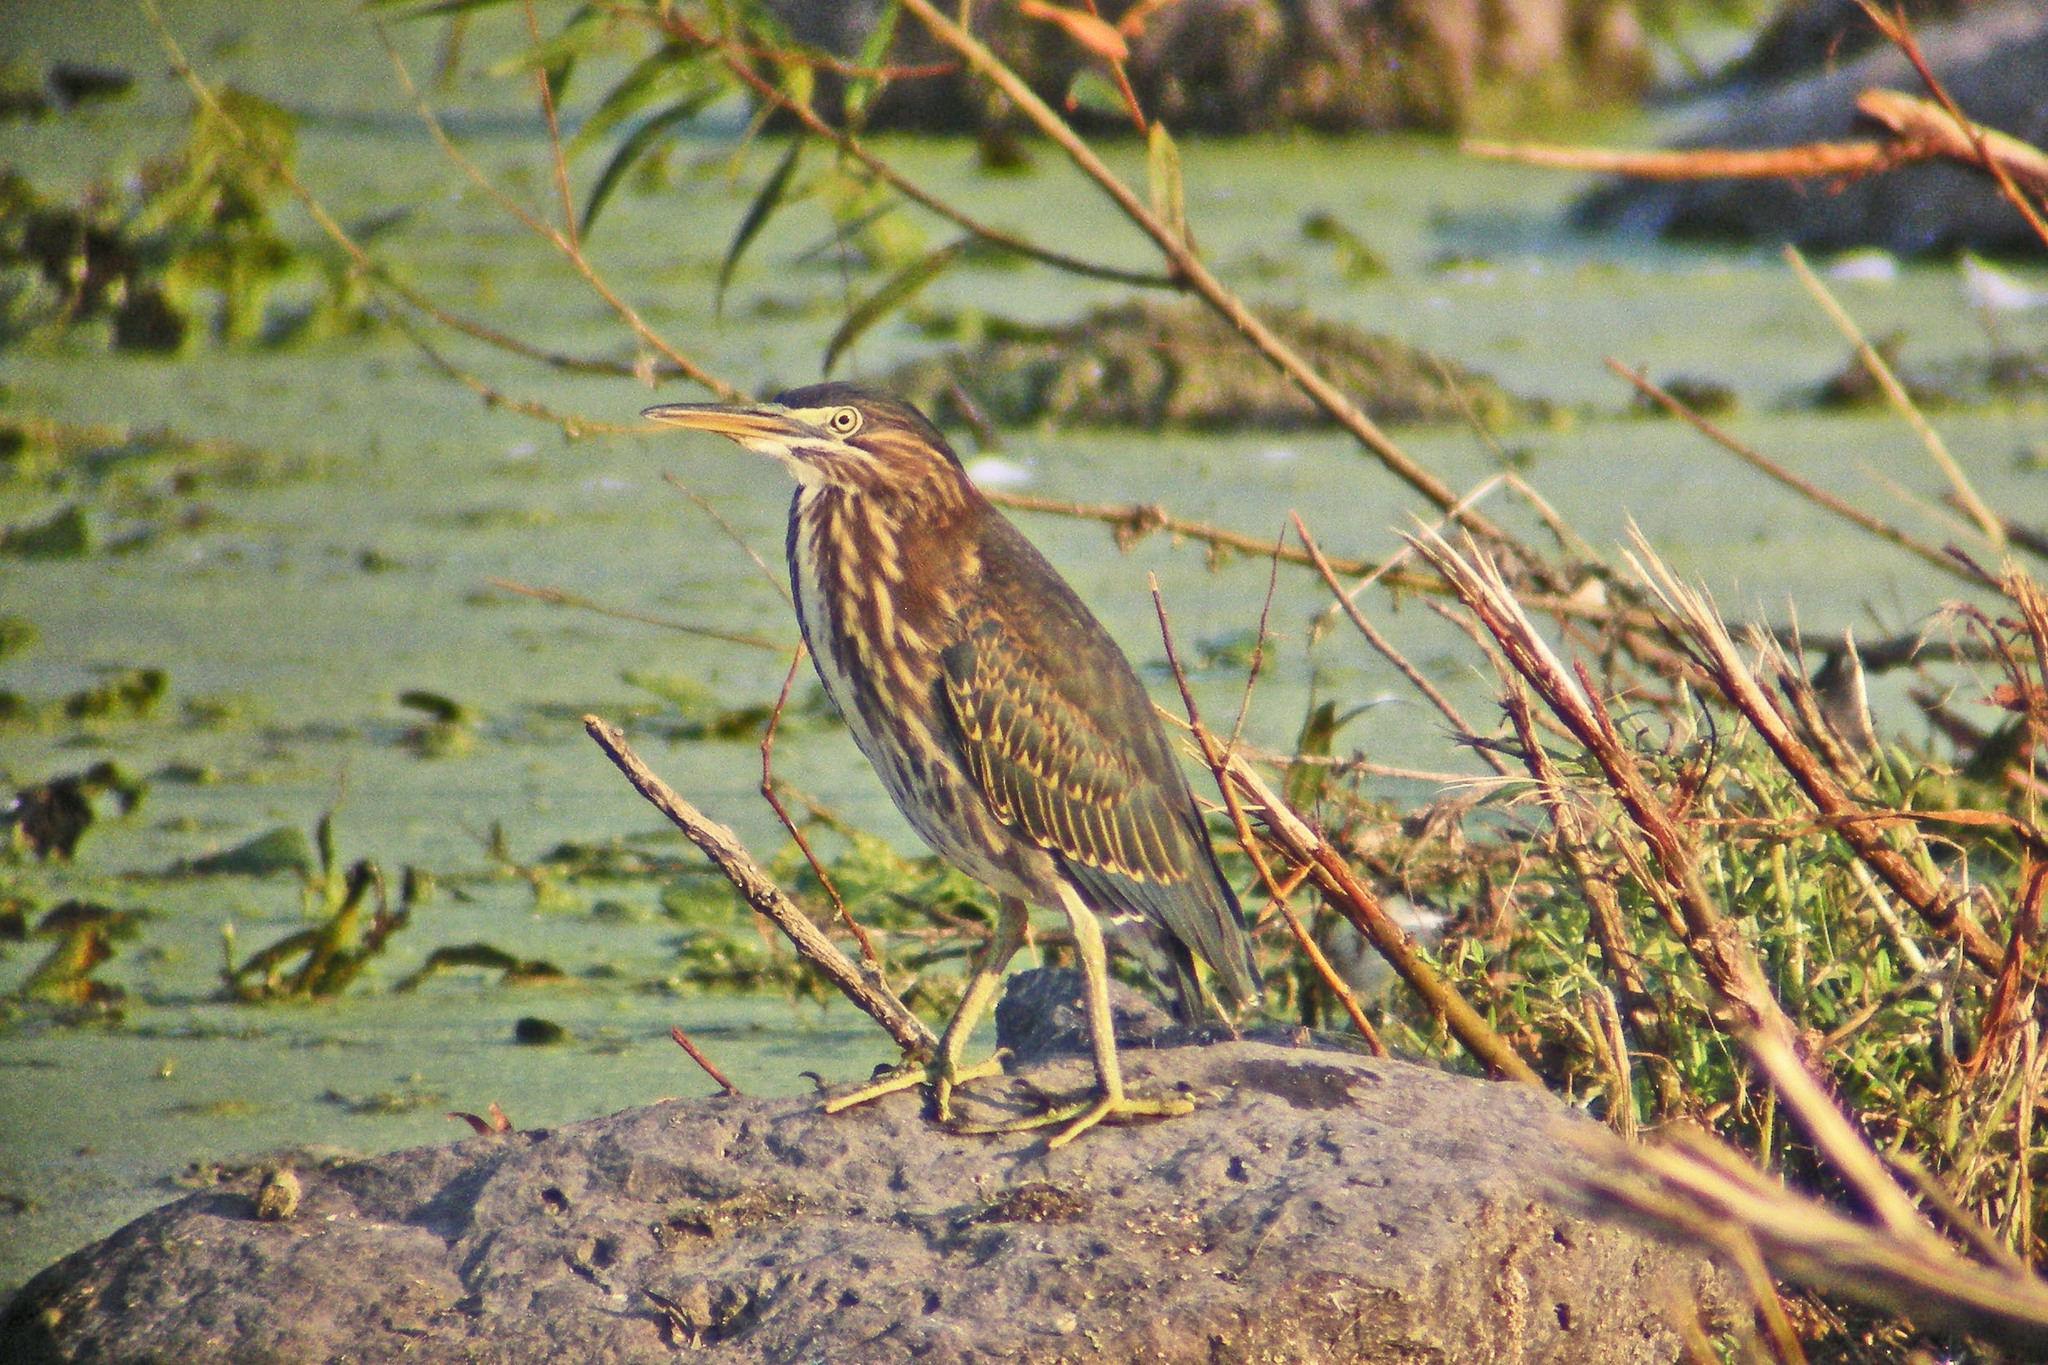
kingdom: Animalia
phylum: Chordata
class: Aves
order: Pelecaniformes
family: Ardeidae
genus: Butorides
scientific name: Butorides virescens
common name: Green heron
